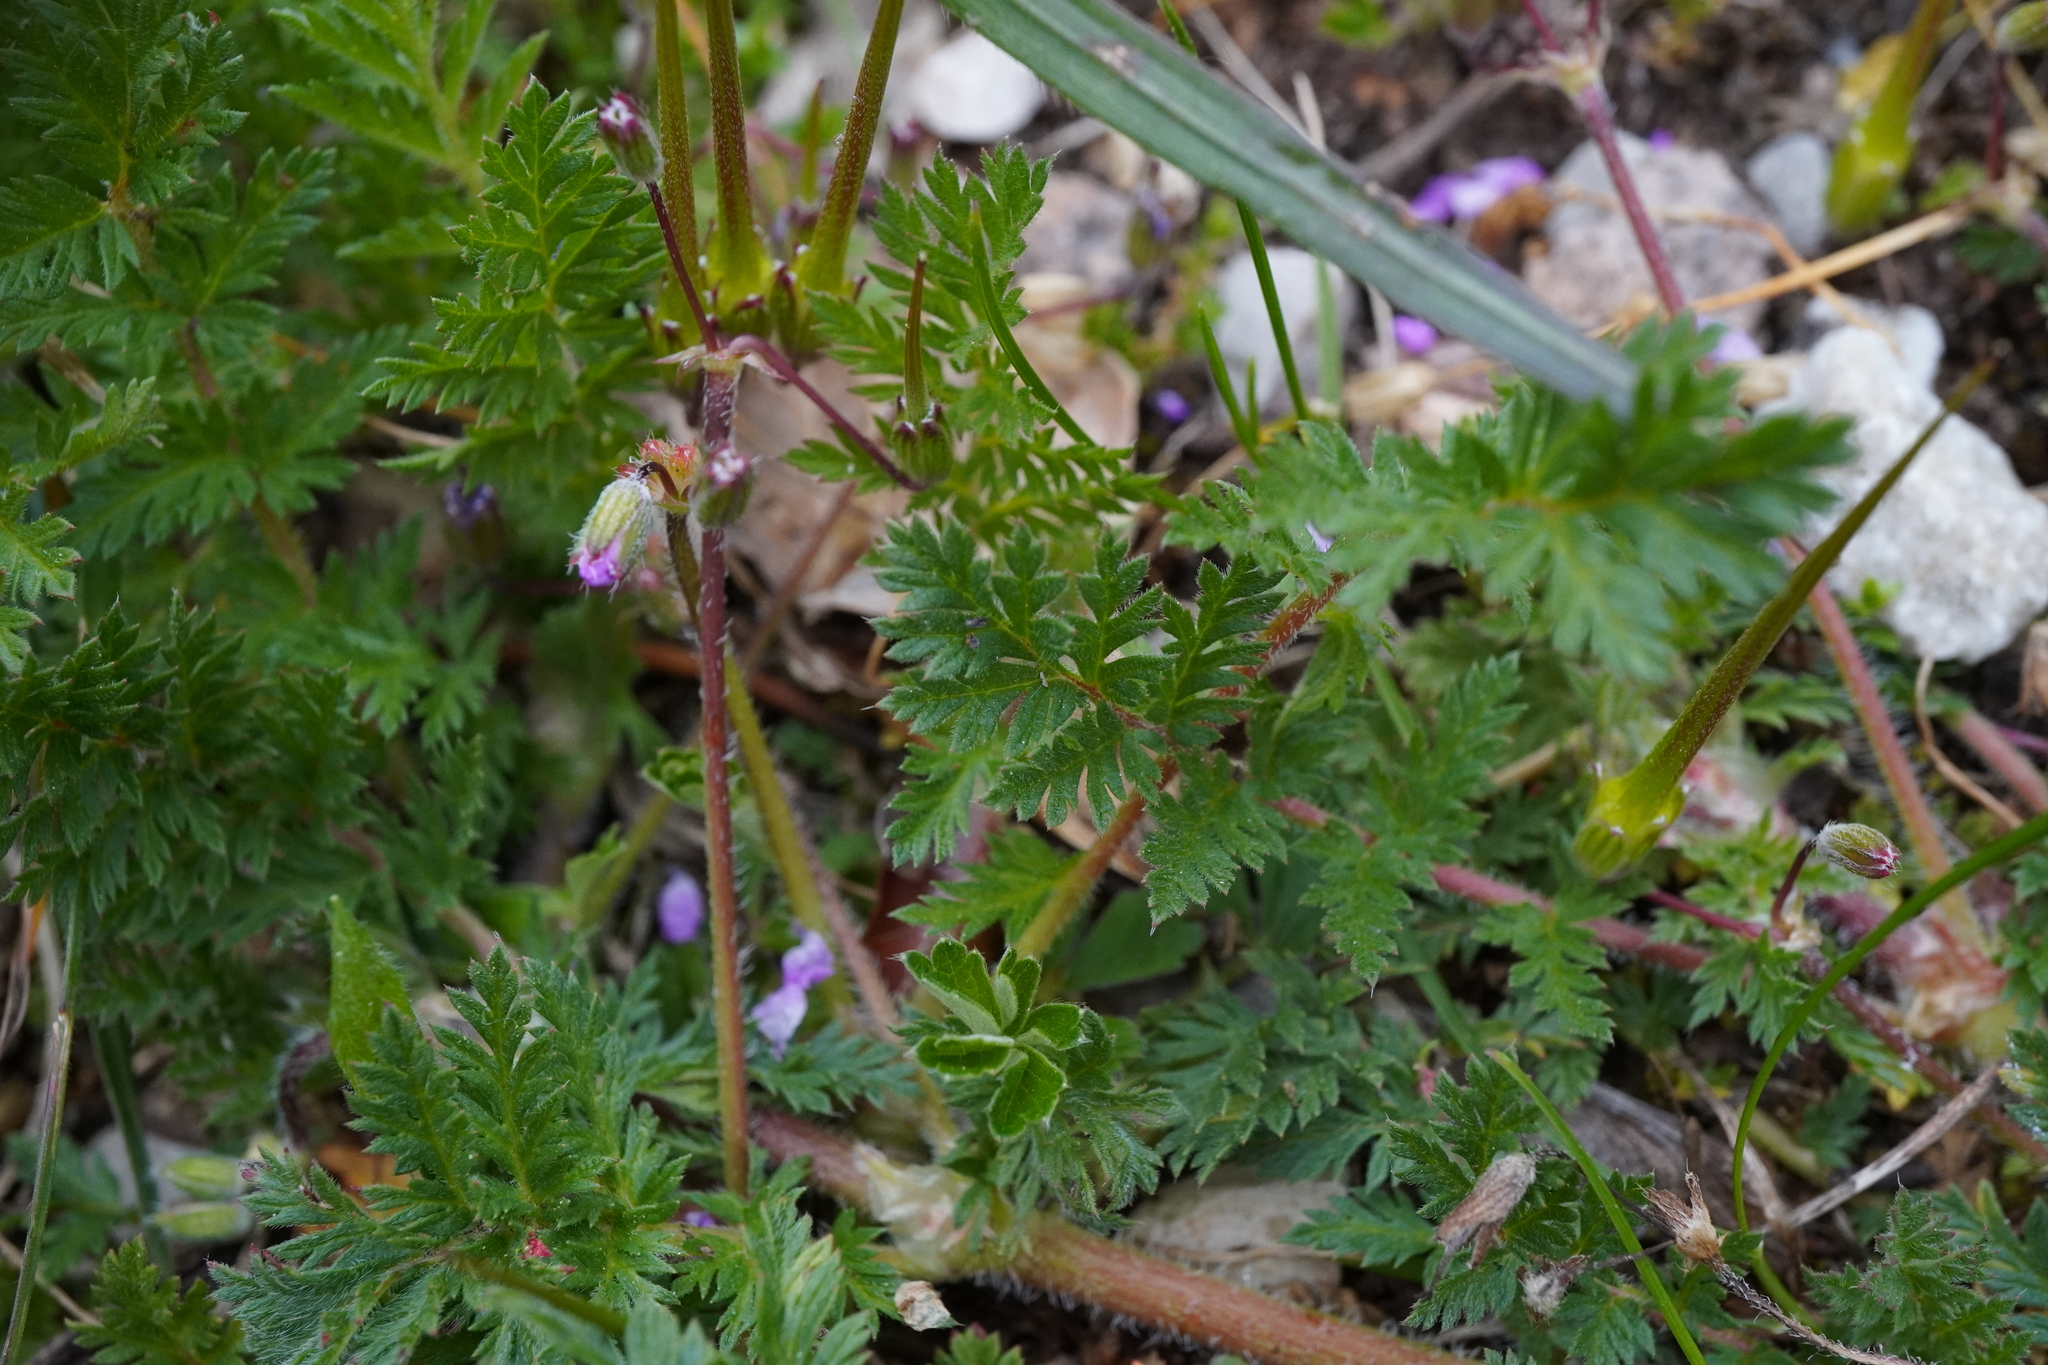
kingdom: Plantae
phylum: Tracheophyta
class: Magnoliopsida
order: Geraniales
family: Geraniaceae
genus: Erodium
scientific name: Erodium cicutarium
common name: Common stork's-bill
